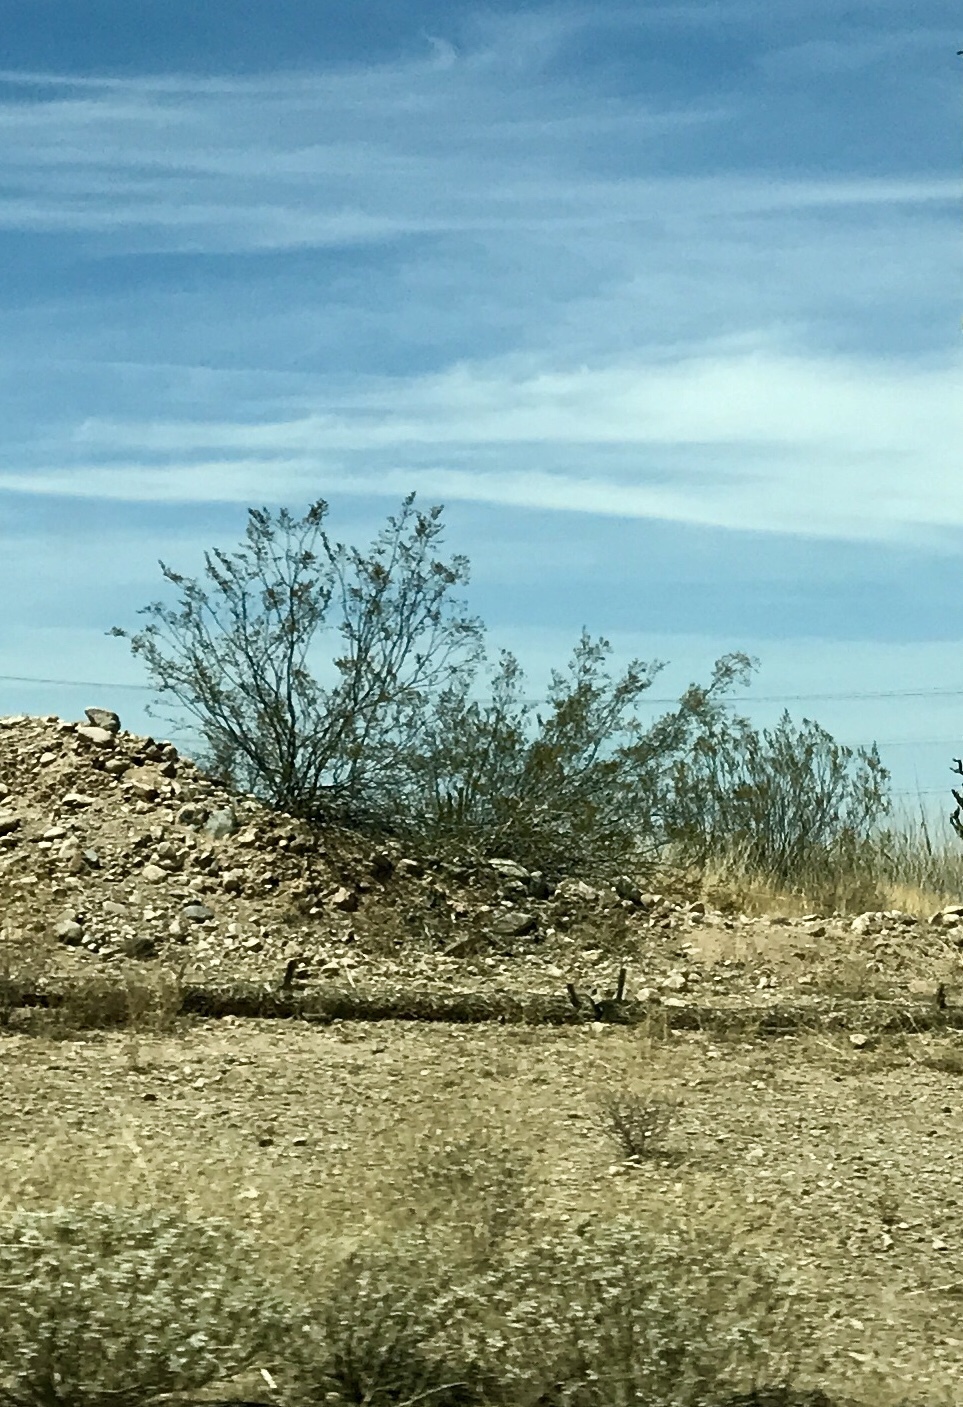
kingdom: Plantae
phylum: Tracheophyta
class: Magnoliopsida
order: Zygophyllales
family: Zygophyllaceae
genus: Larrea
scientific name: Larrea tridentata
